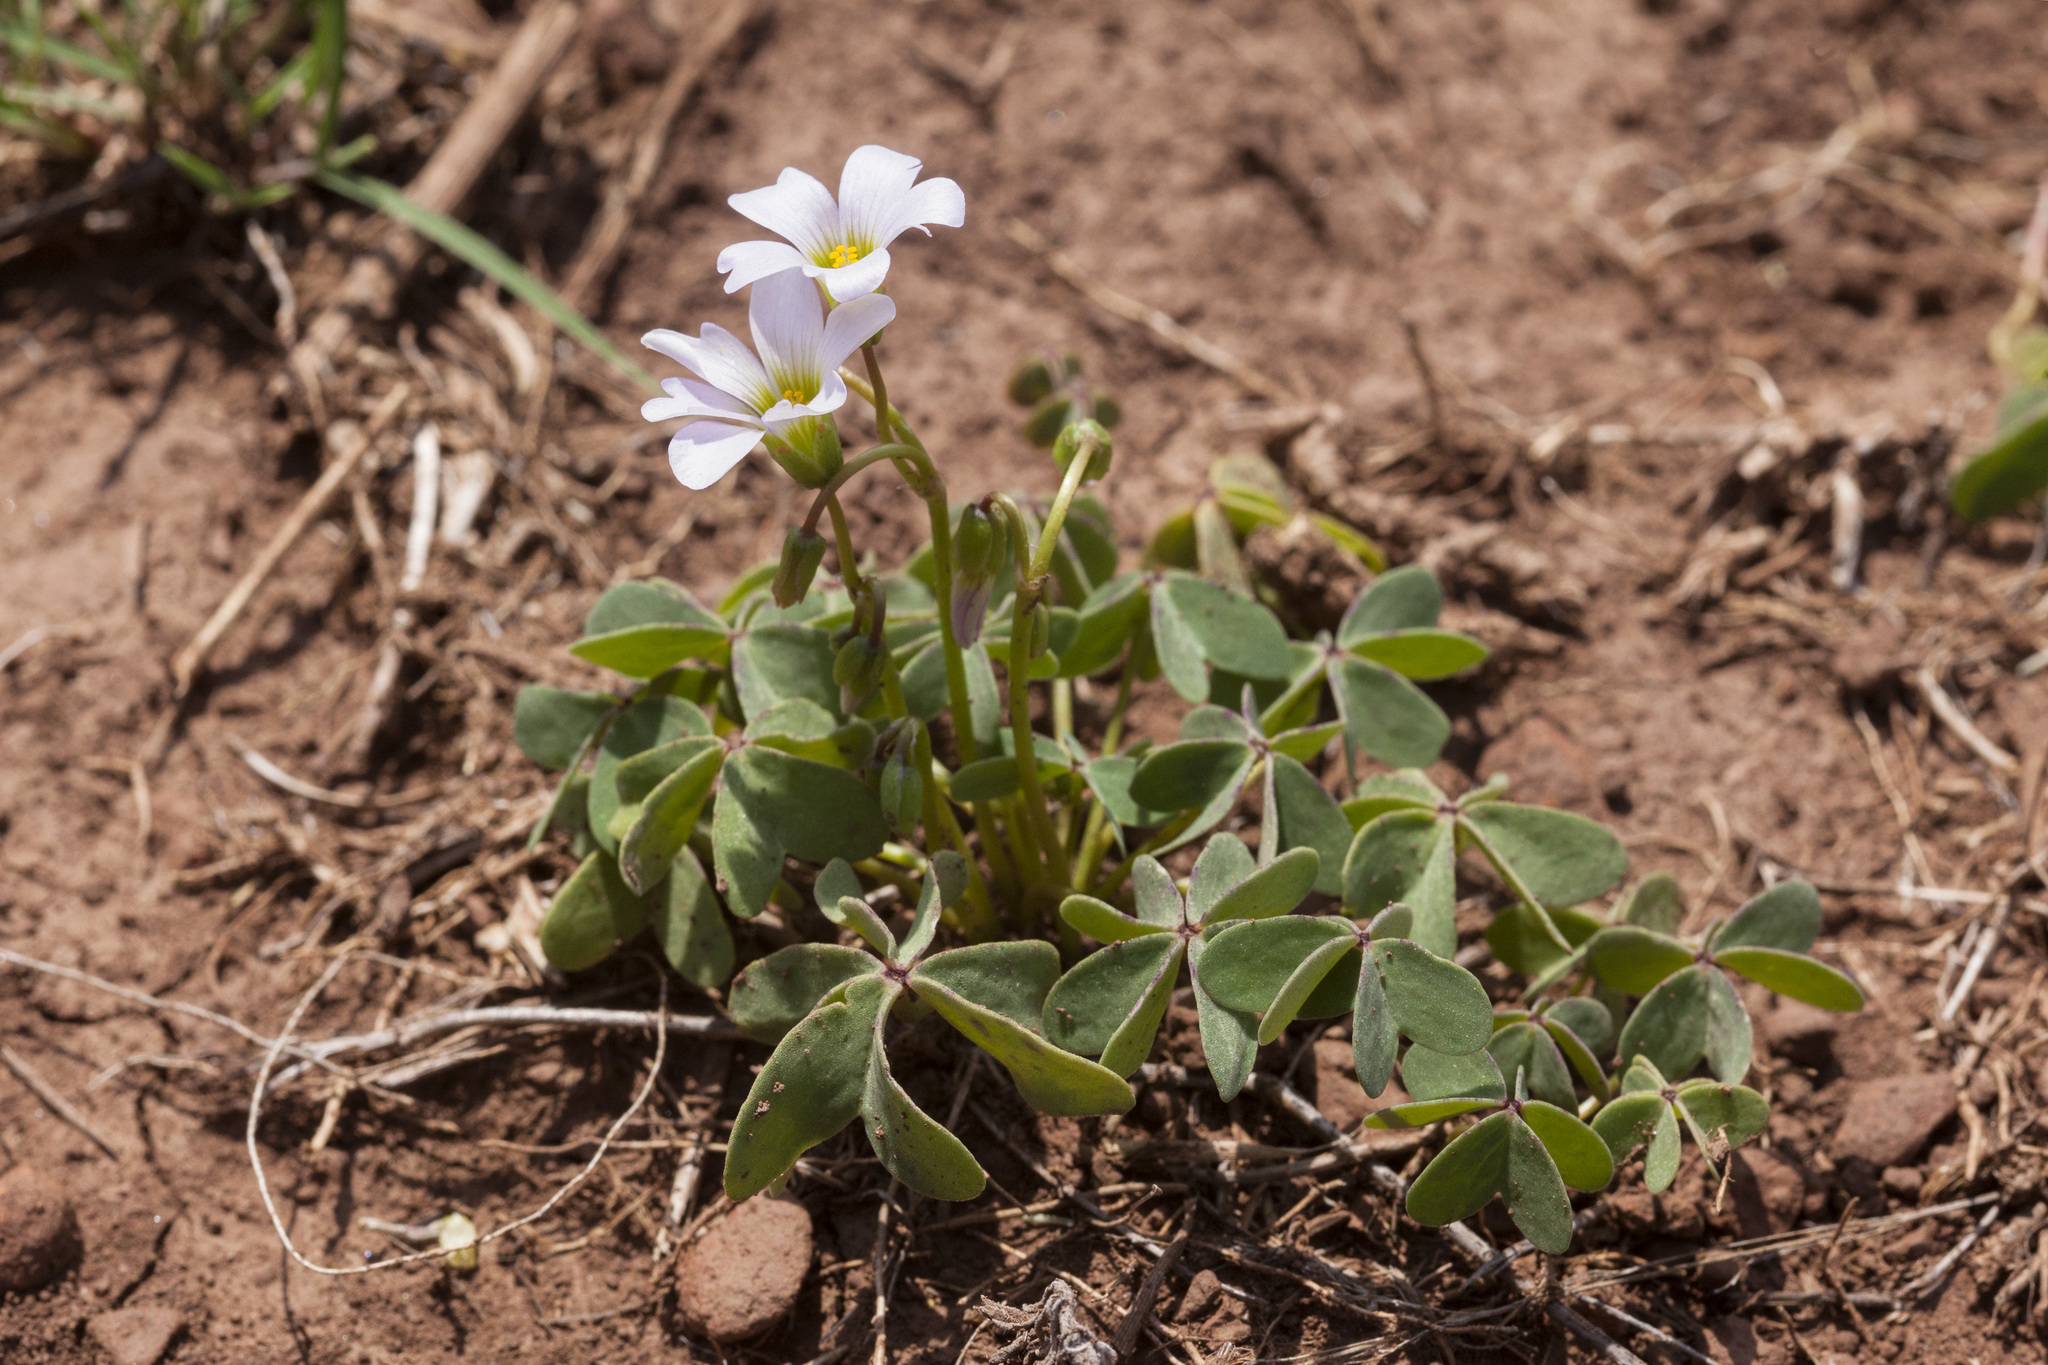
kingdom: Plantae
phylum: Tracheophyta
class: Magnoliopsida
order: Oxalidales
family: Oxalidaceae
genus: Oxalis
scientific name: Oxalis caerulea
